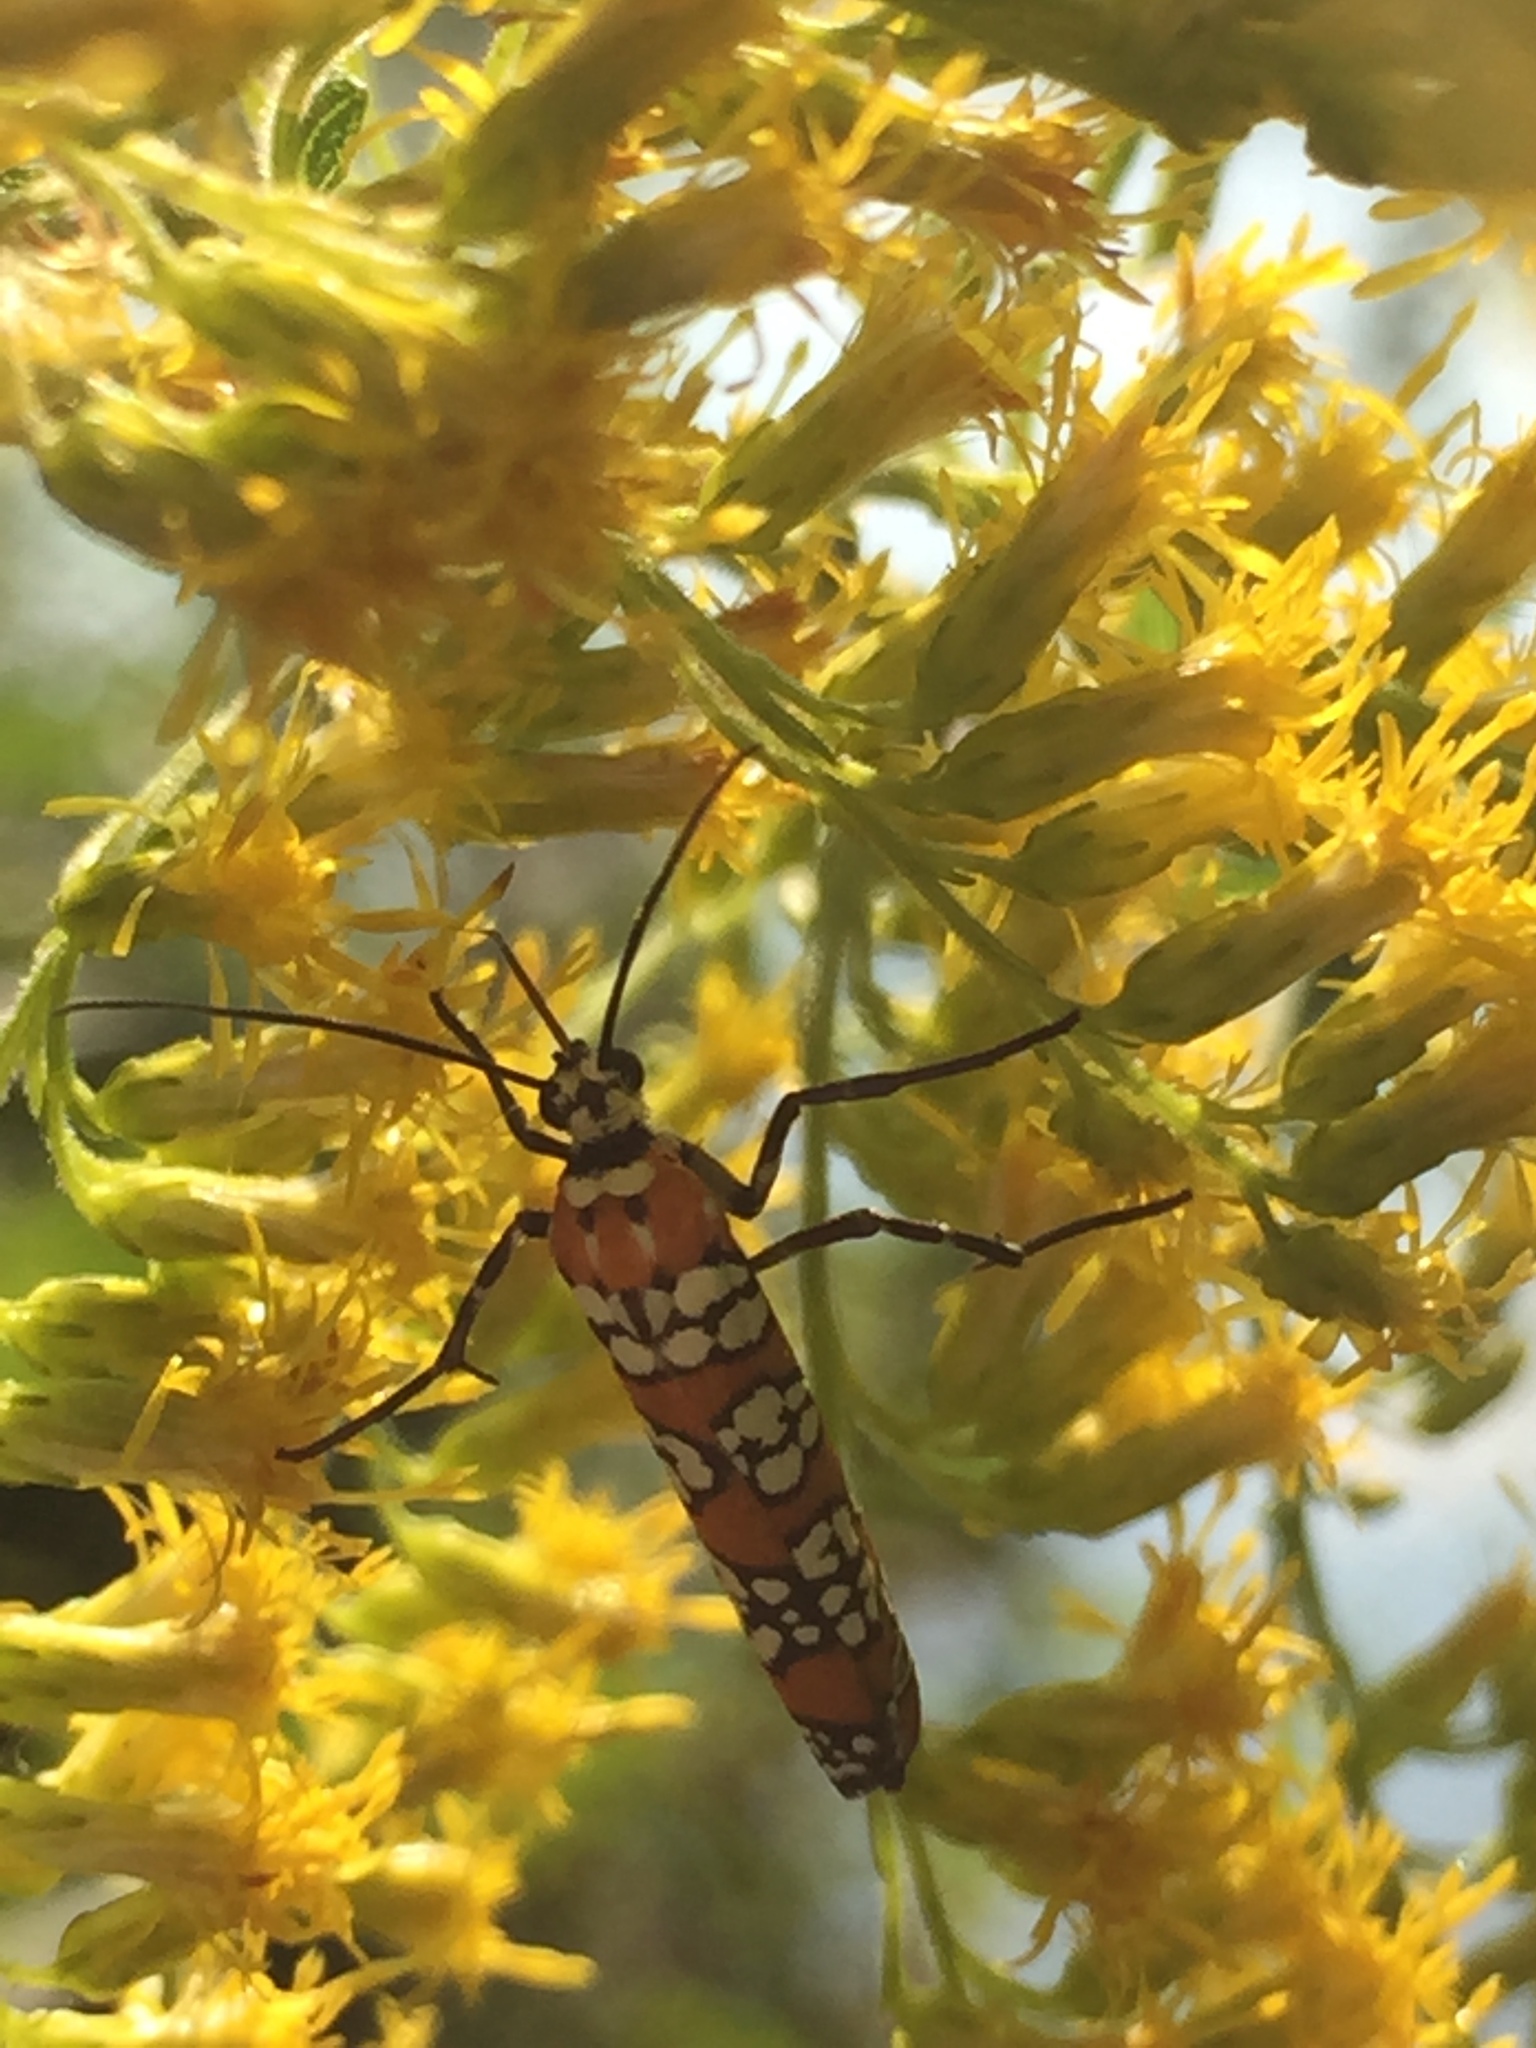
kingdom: Animalia
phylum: Arthropoda
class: Insecta
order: Lepidoptera
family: Attevidae
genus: Atteva
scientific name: Atteva punctella
